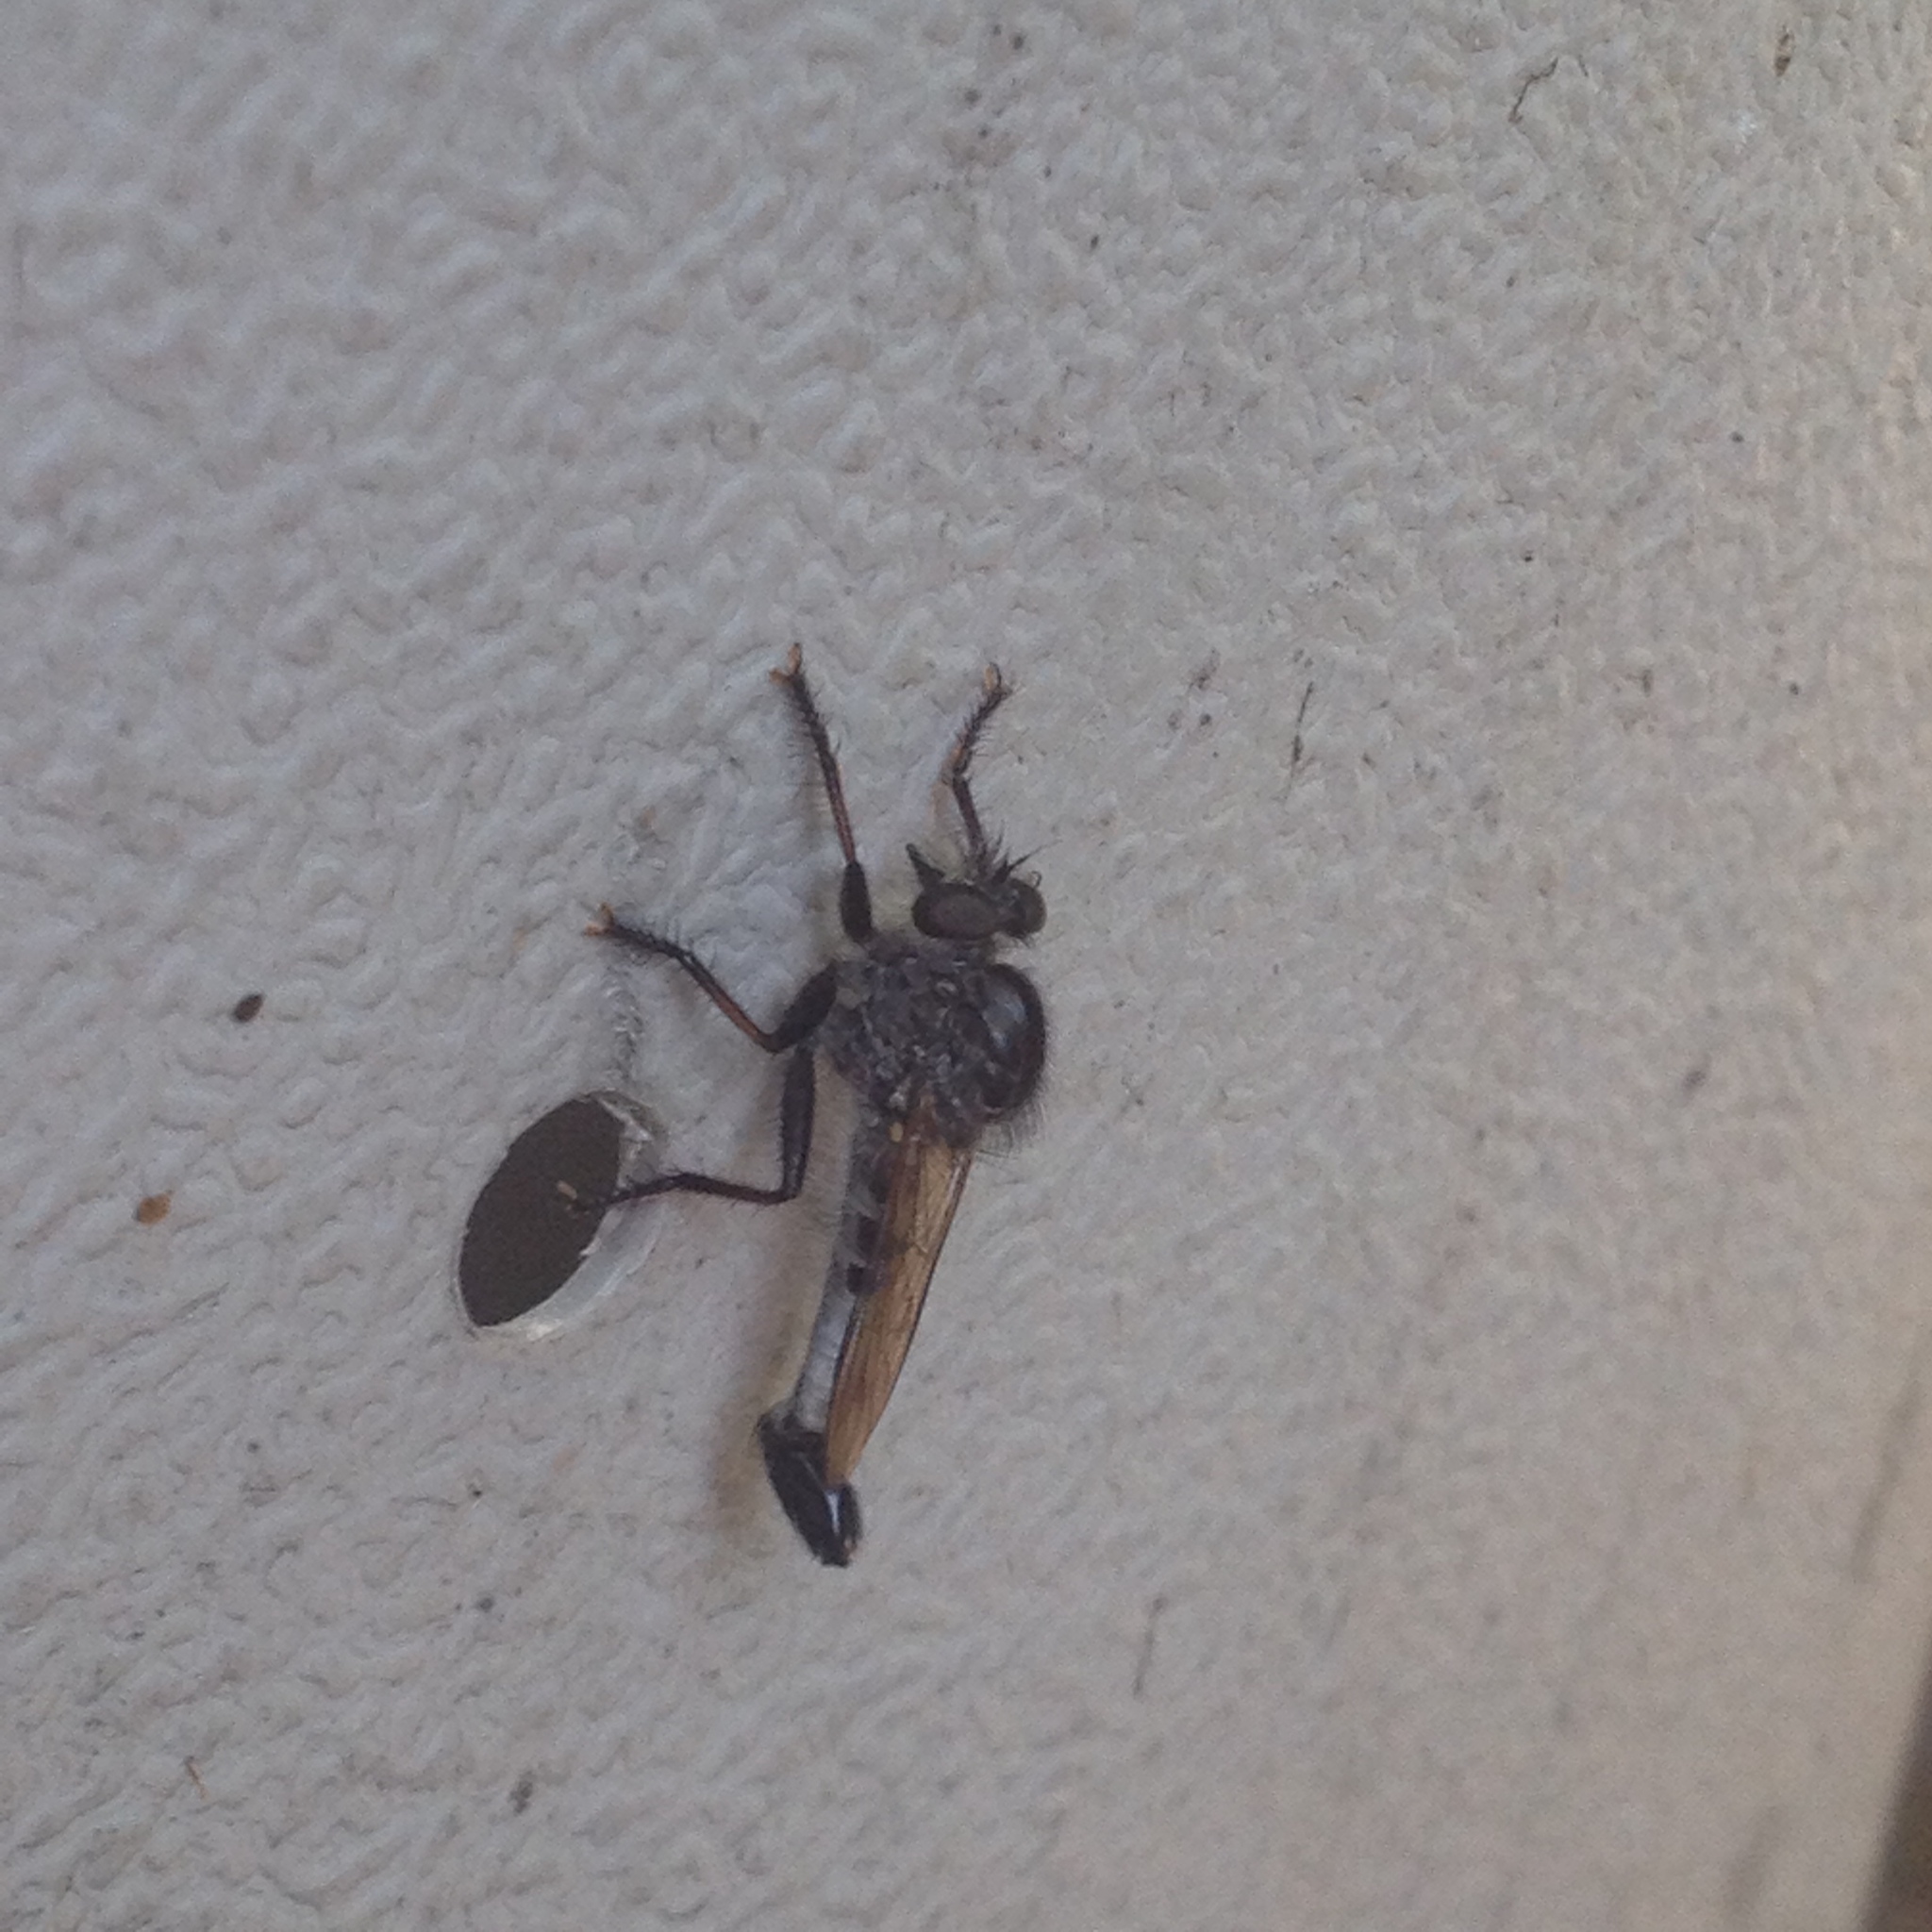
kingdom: Animalia
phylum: Arthropoda
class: Insecta
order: Diptera
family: Asilidae
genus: Efferia
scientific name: Efferia aestuans
